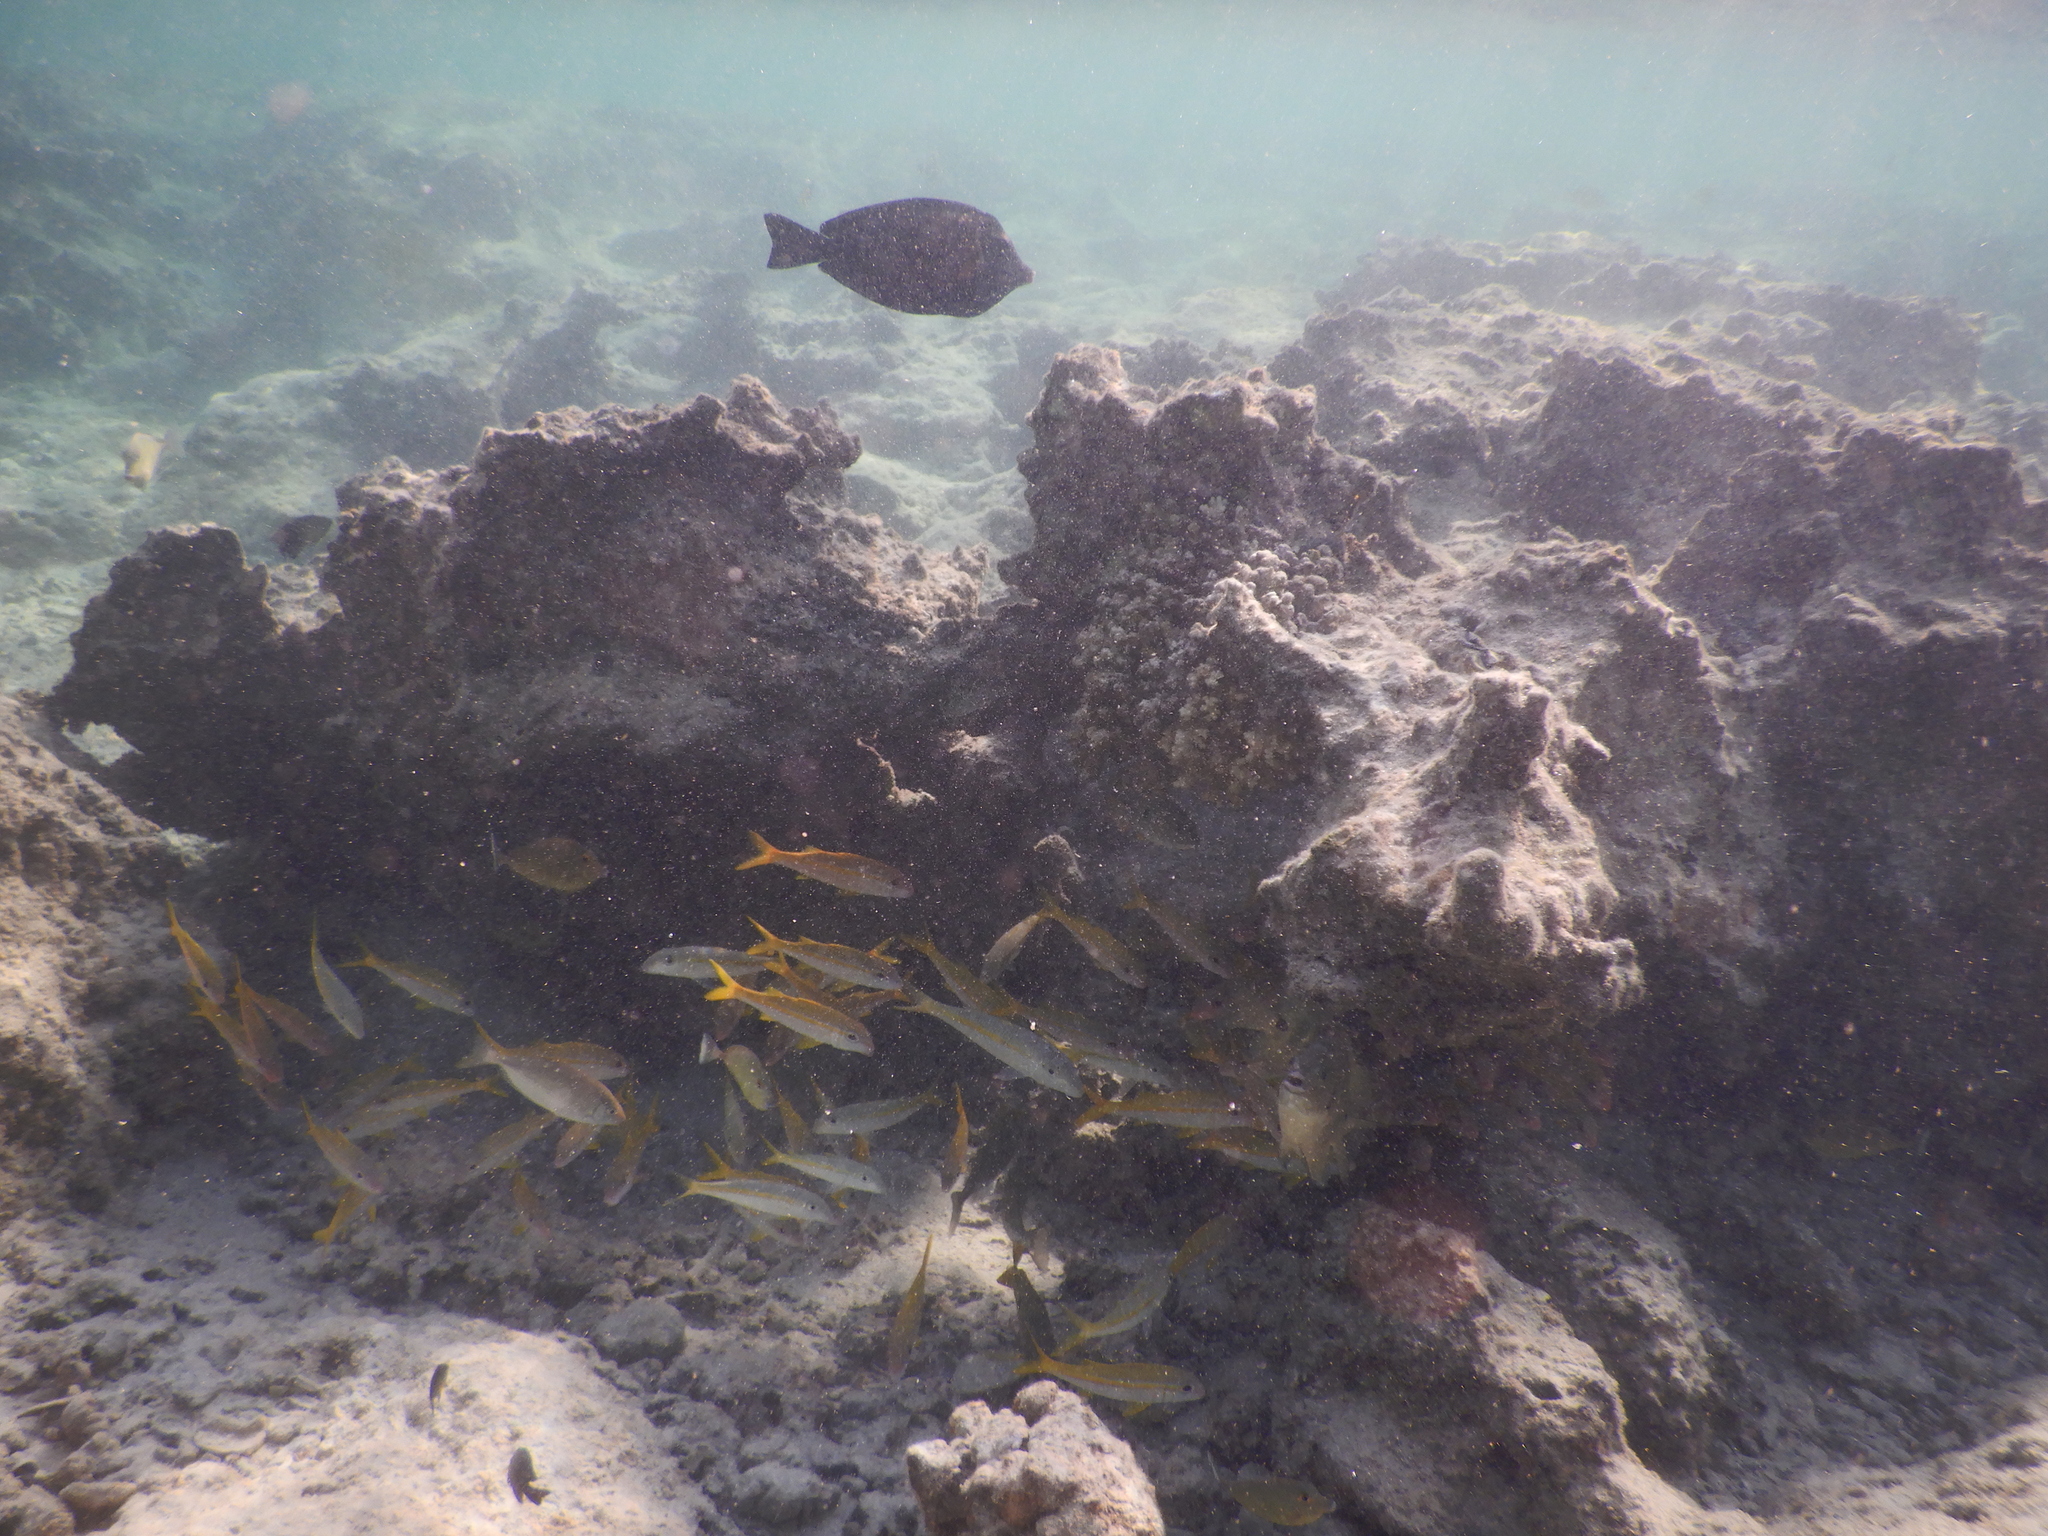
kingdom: Animalia
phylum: Chordata
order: Perciformes
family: Mullidae
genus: Mulloidichthys
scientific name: Mulloidichthys vanicolensis
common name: Yellowfin goatfish
